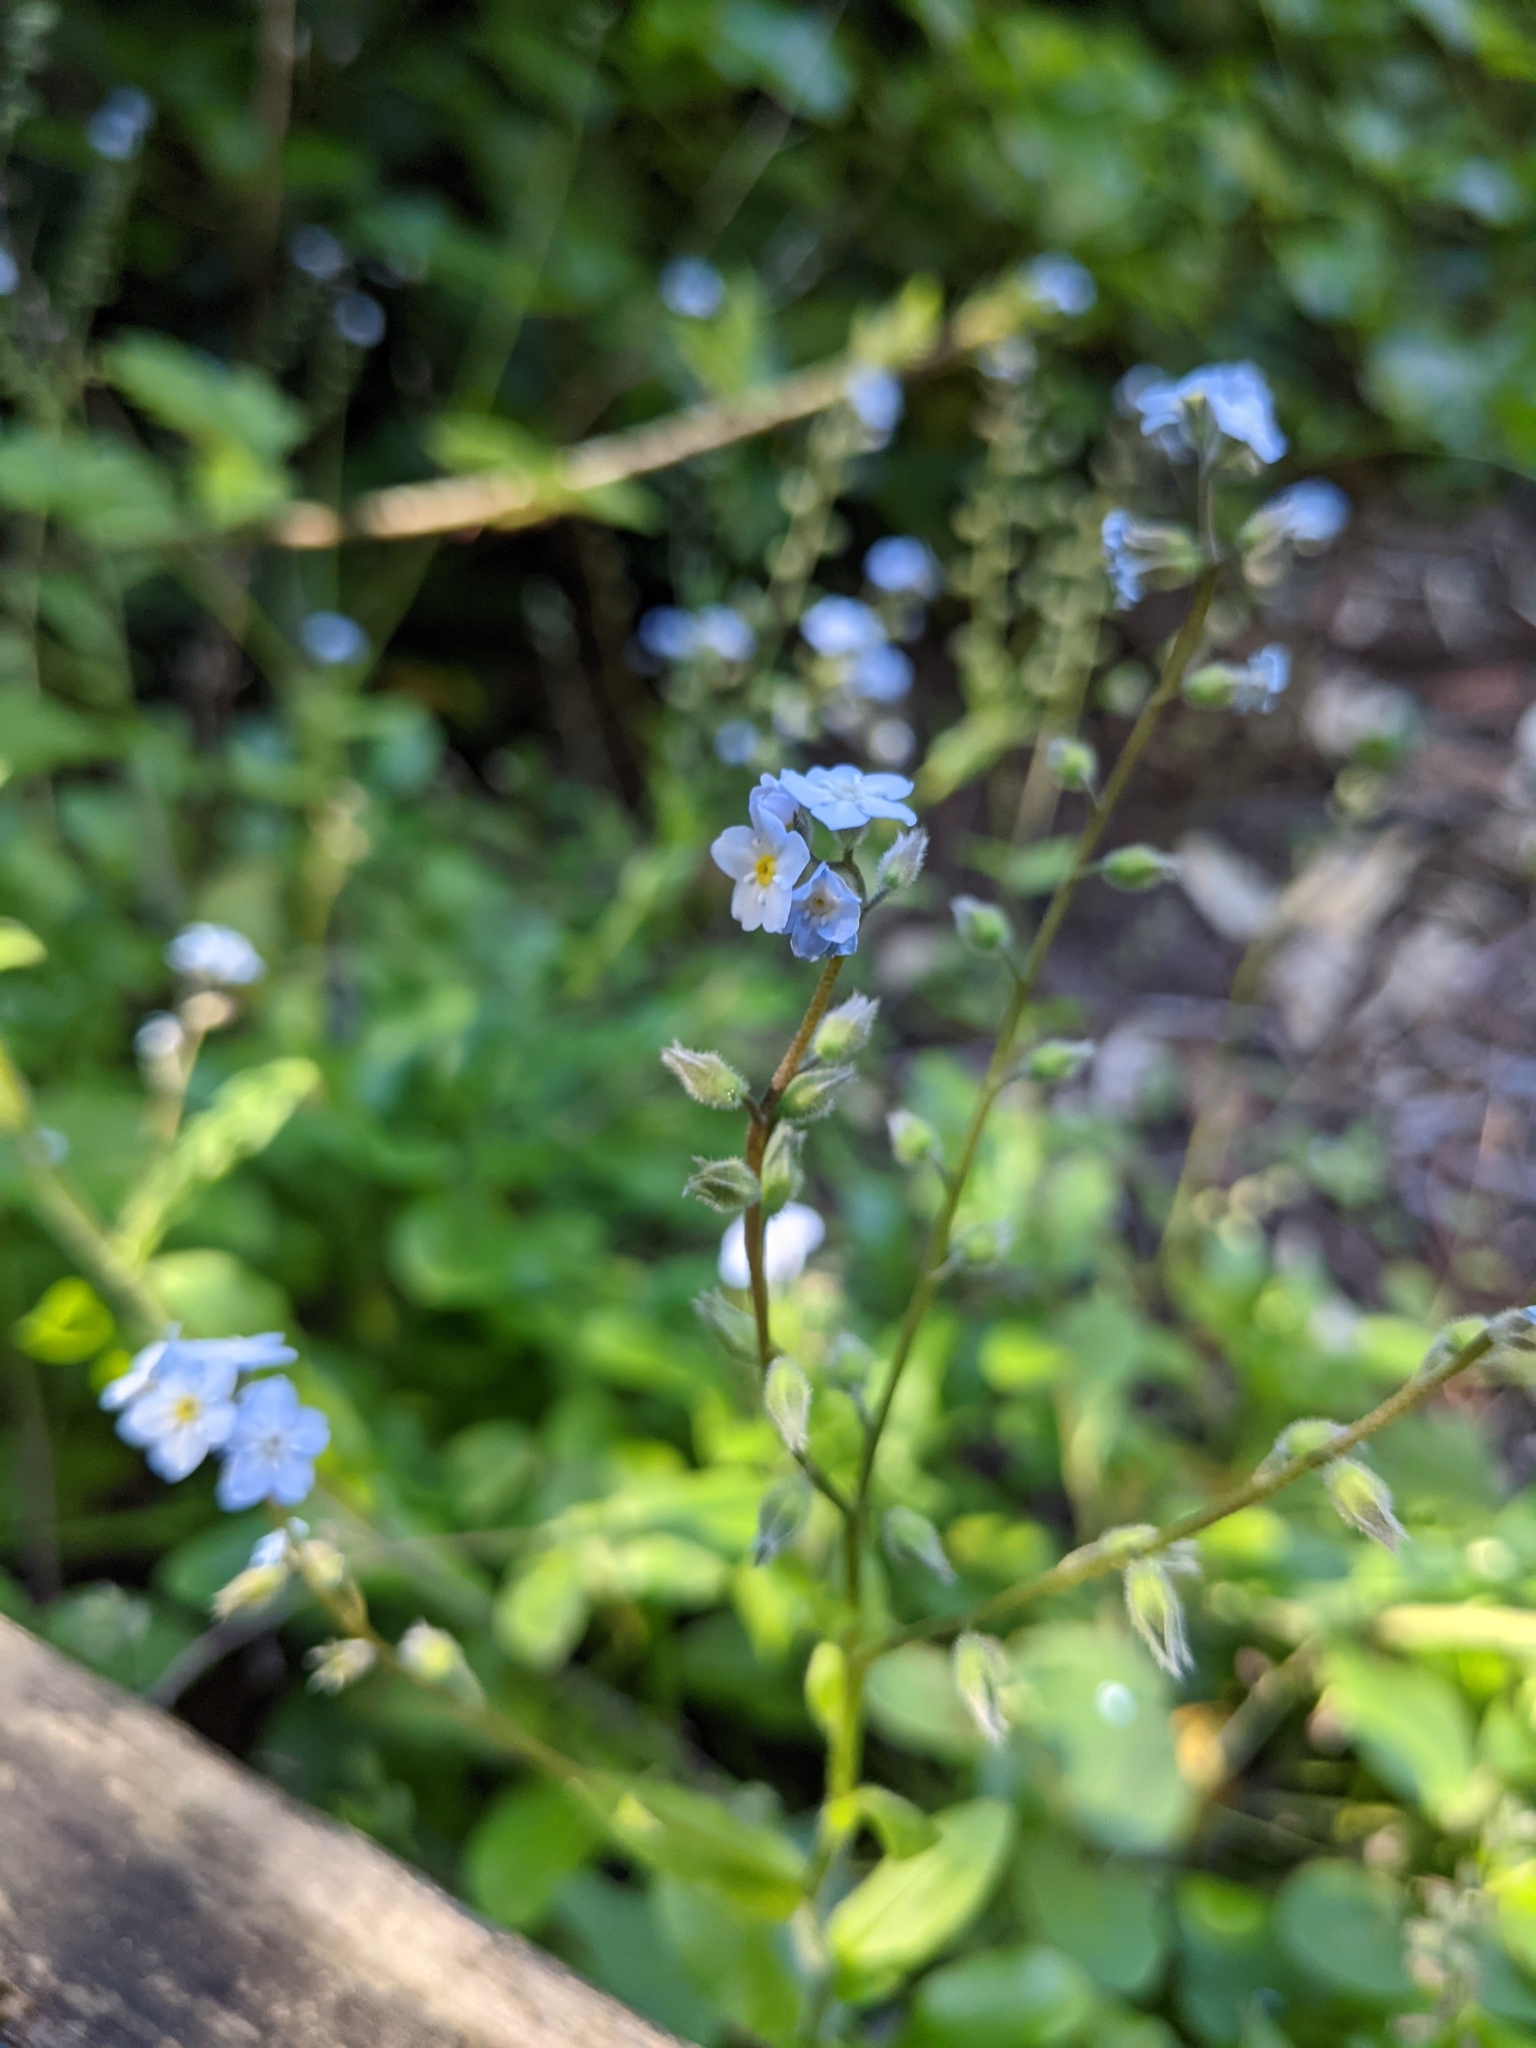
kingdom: Plantae
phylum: Tracheophyta
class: Magnoliopsida
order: Boraginales
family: Boraginaceae
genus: Myosotis
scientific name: Myosotis latifolia
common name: Broadleaf forget-me-not
